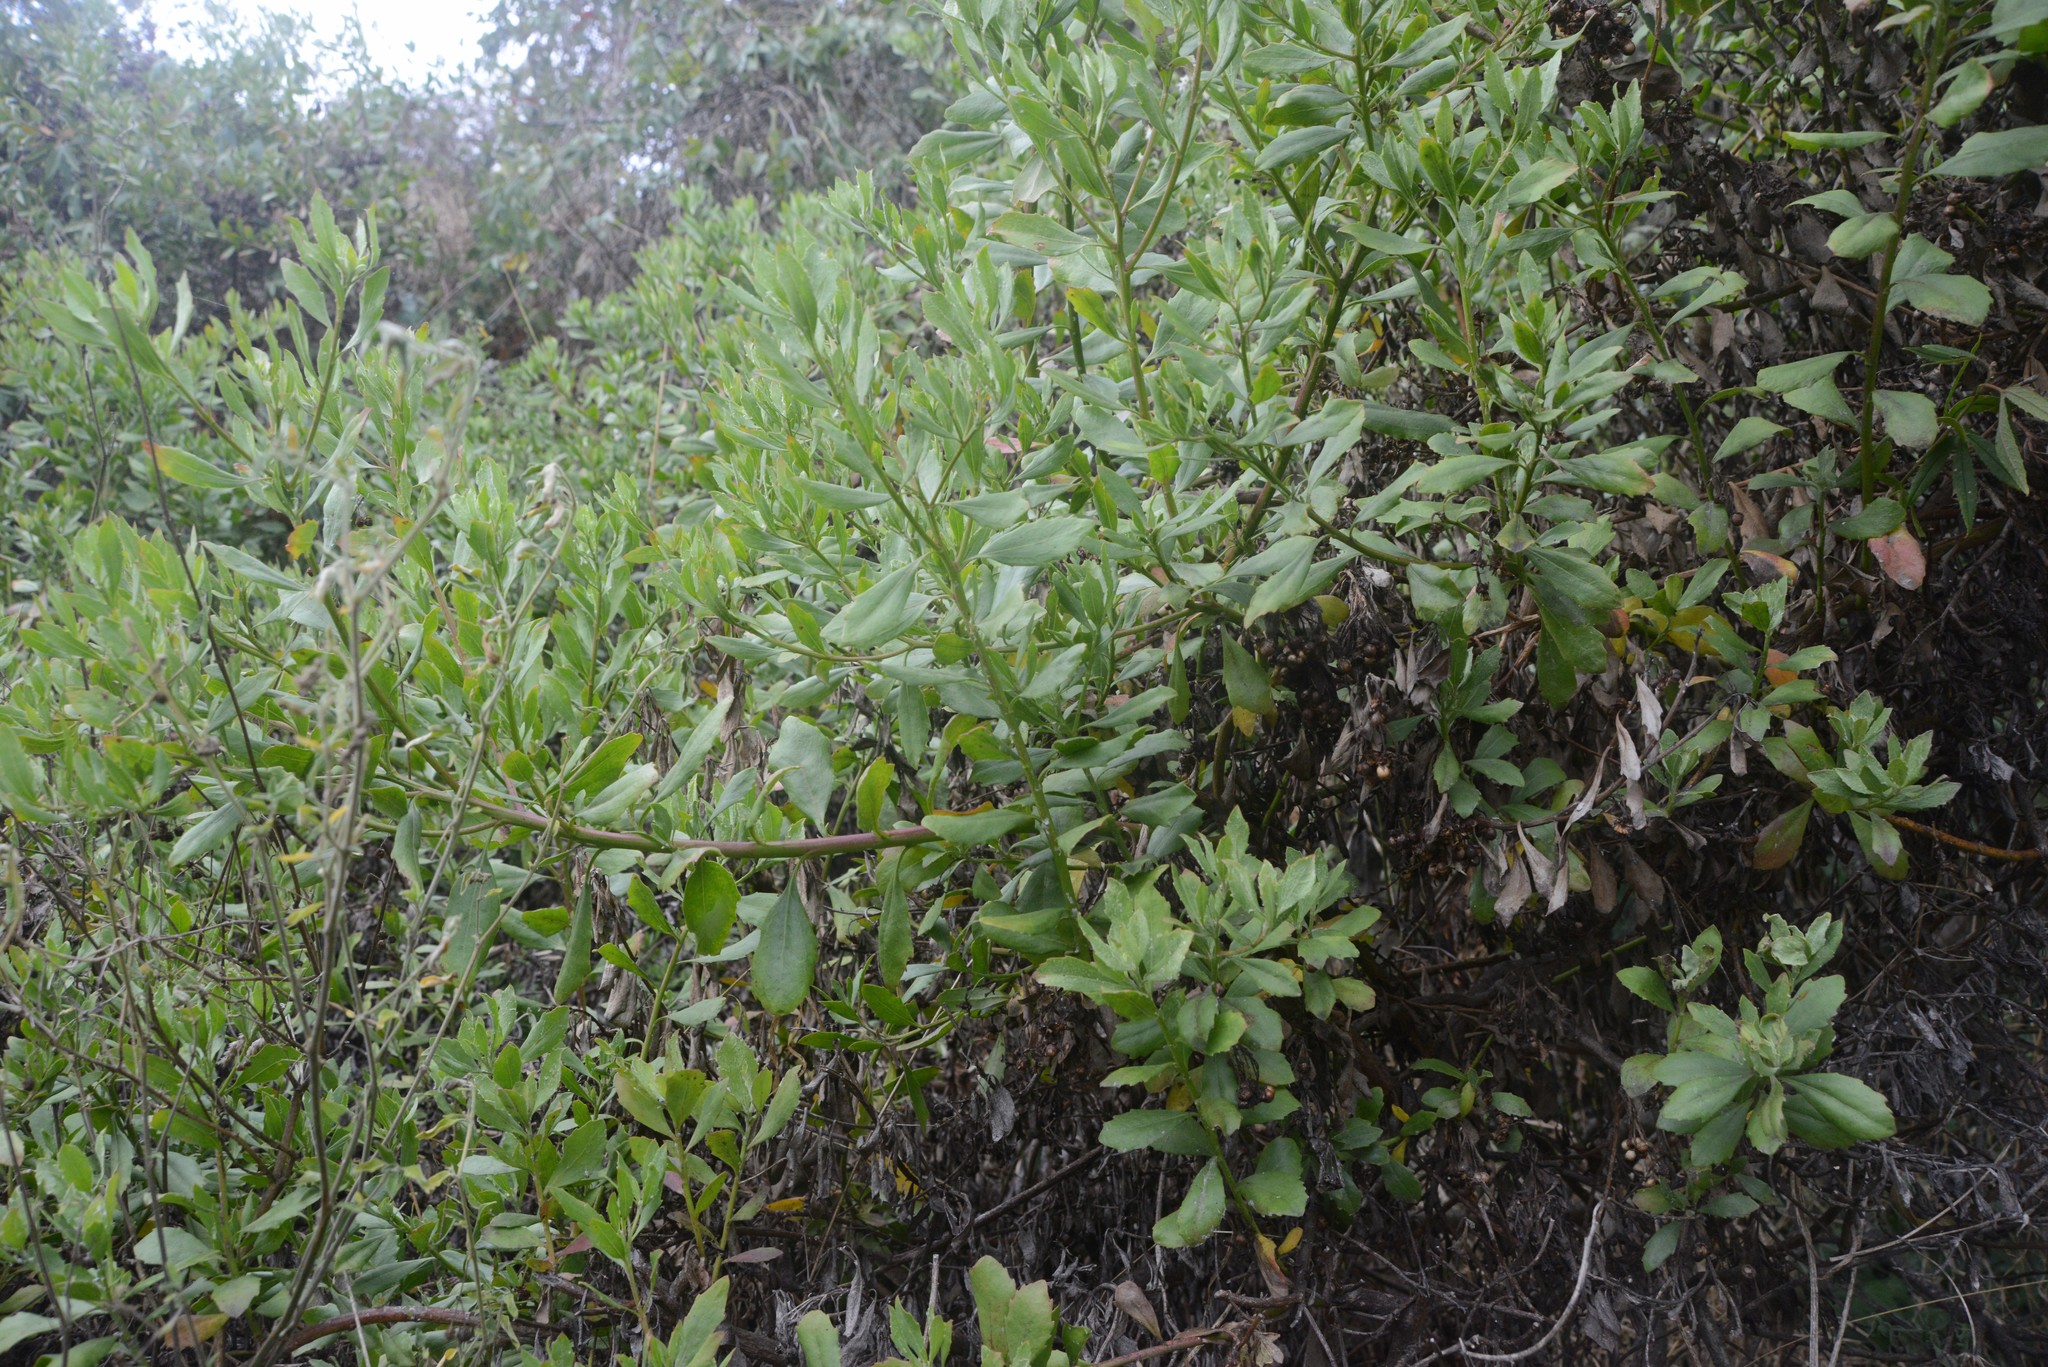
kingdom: Plantae
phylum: Tracheophyta
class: Magnoliopsida
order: Asterales
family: Asteraceae
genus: Osteospermum
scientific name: Osteospermum moniliferum
